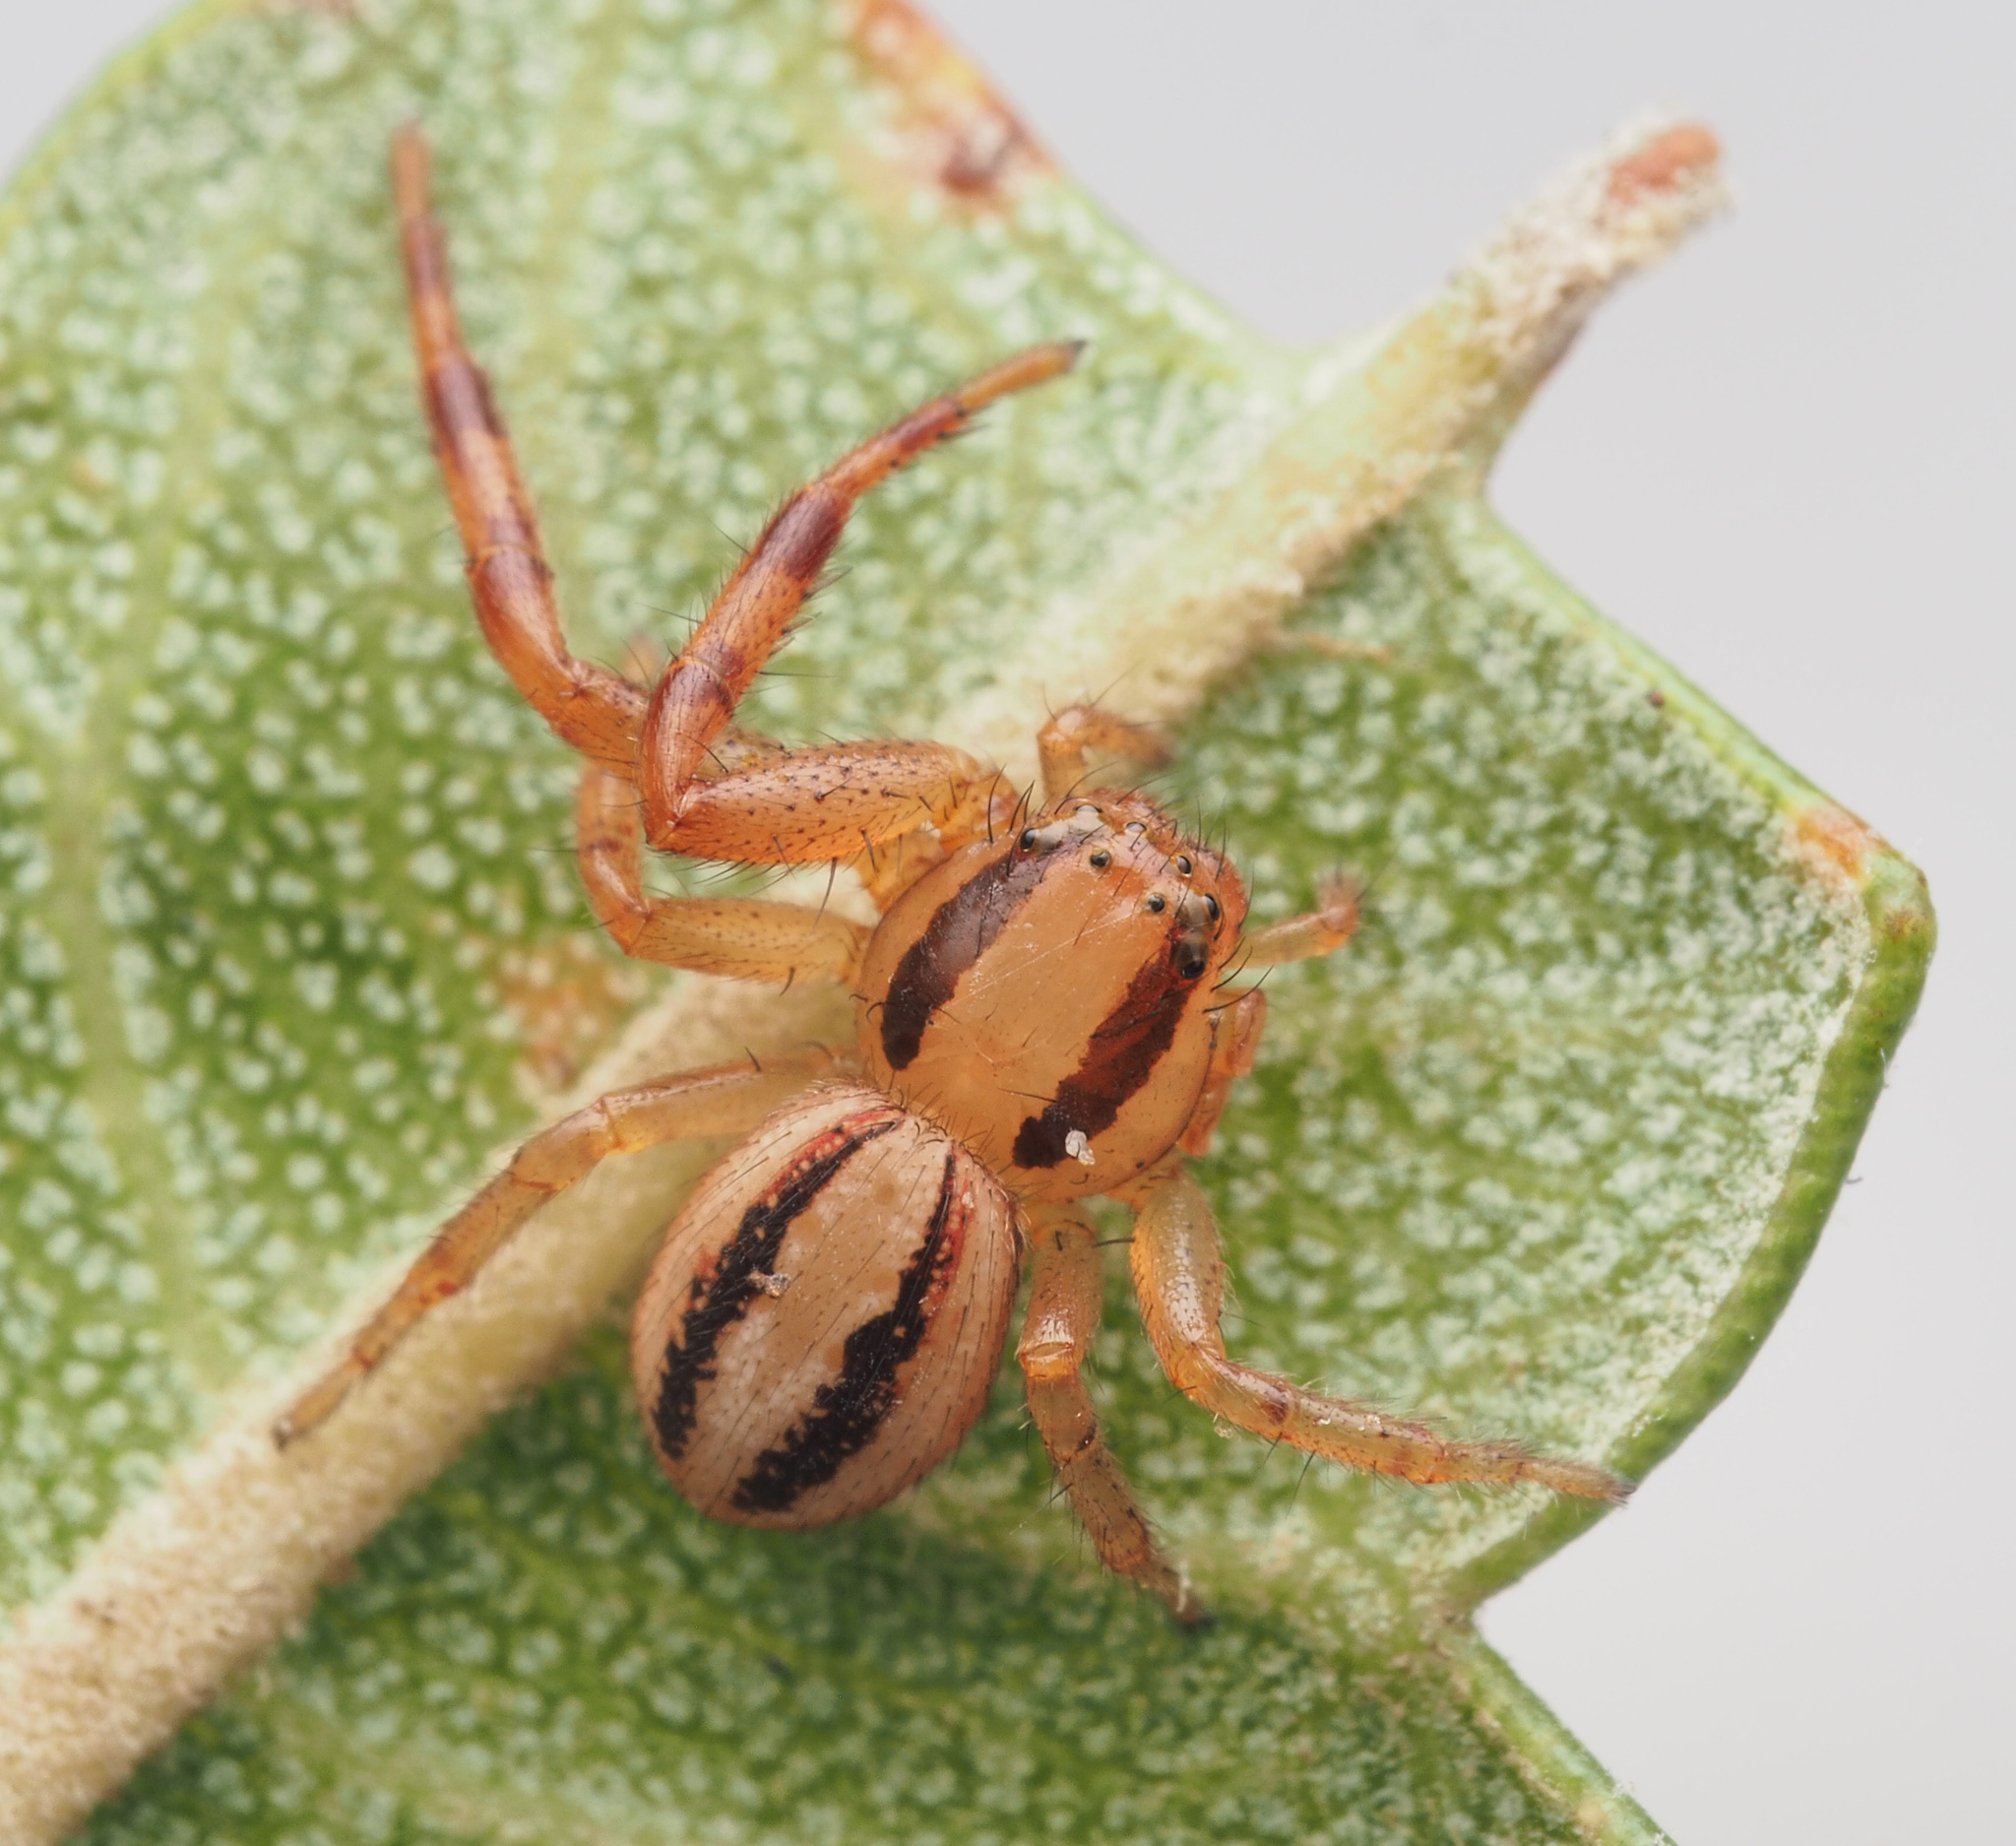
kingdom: Animalia
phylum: Arthropoda
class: Arachnida
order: Araneae
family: Thomisidae
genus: Australomisidia
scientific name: Australomisidia cruentata
